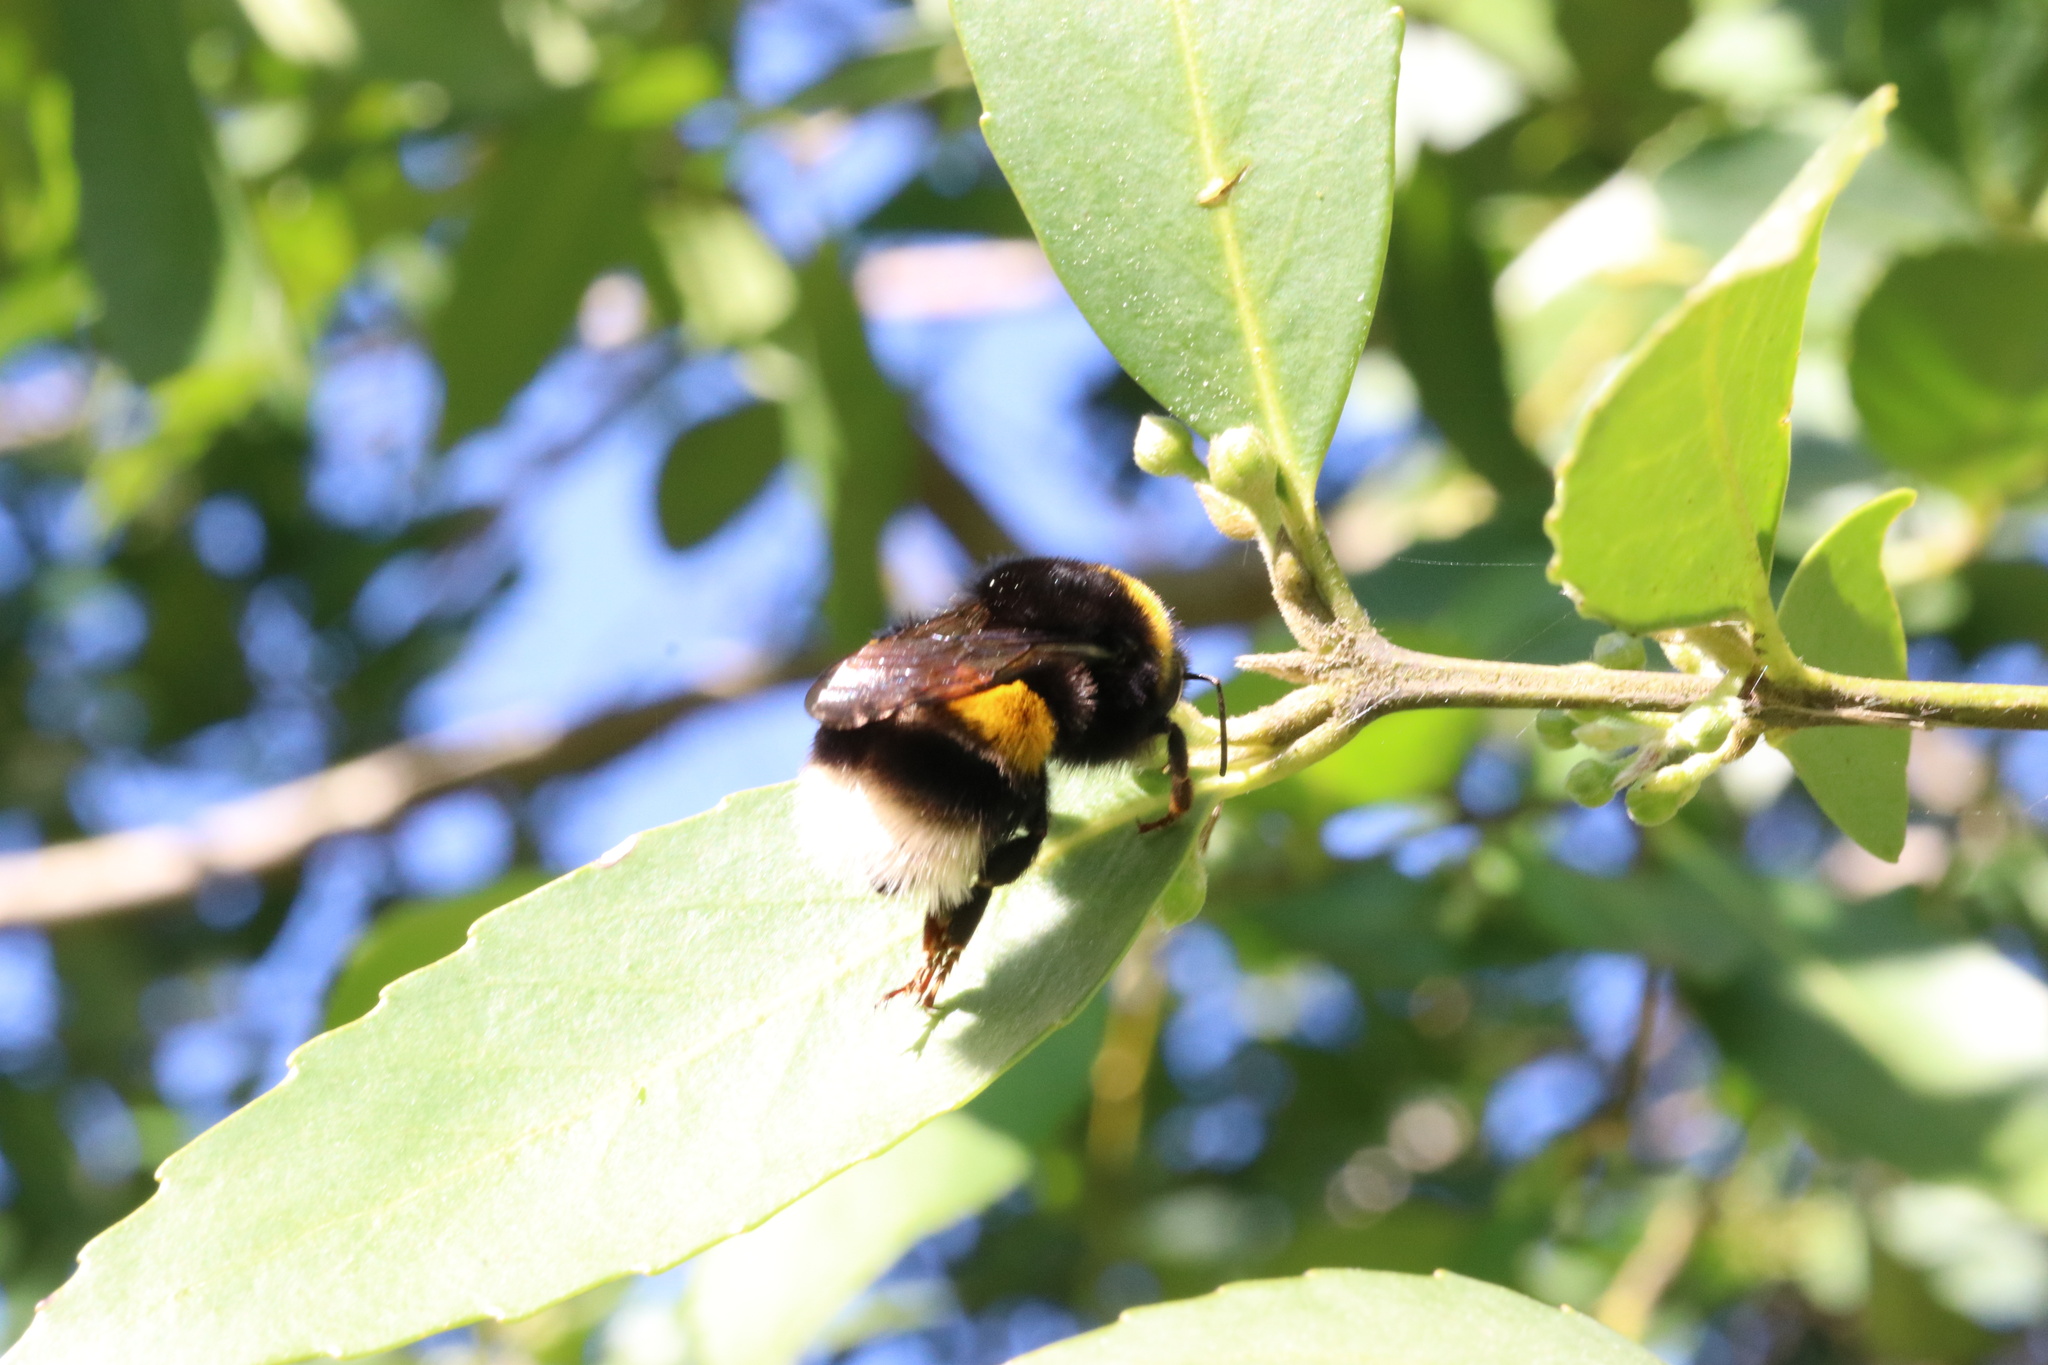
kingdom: Animalia
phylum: Arthropoda
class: Insecta
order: Hymenoptera
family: Apidae
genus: Bombus
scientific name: Bombus terrestris
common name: Buff-tailed bumblebee
